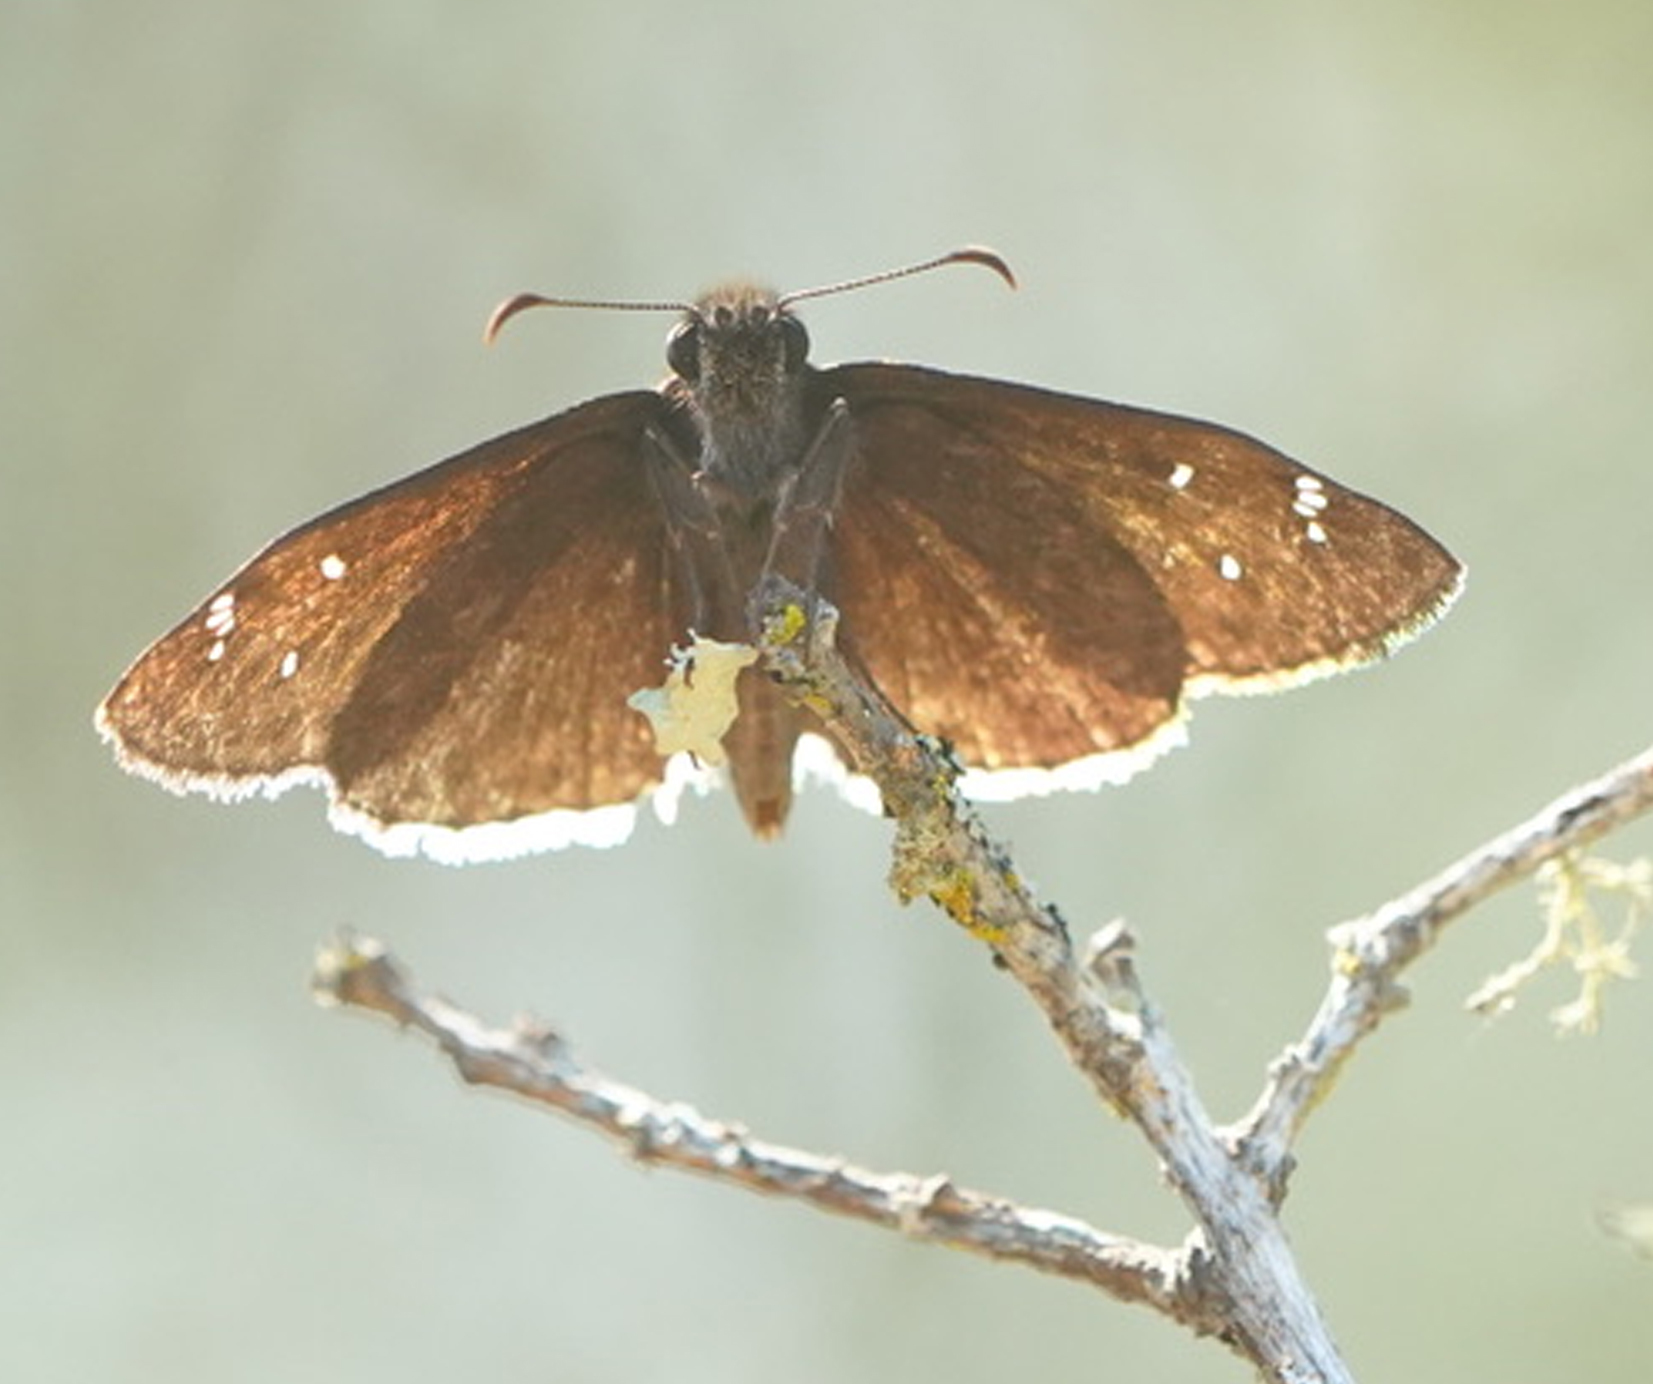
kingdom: Animalia
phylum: Arthropoda
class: Insecta
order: Lepidoptera
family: Hesperiidae
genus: Erynnis
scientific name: Erynnis tristis
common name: Mournful duskywing
